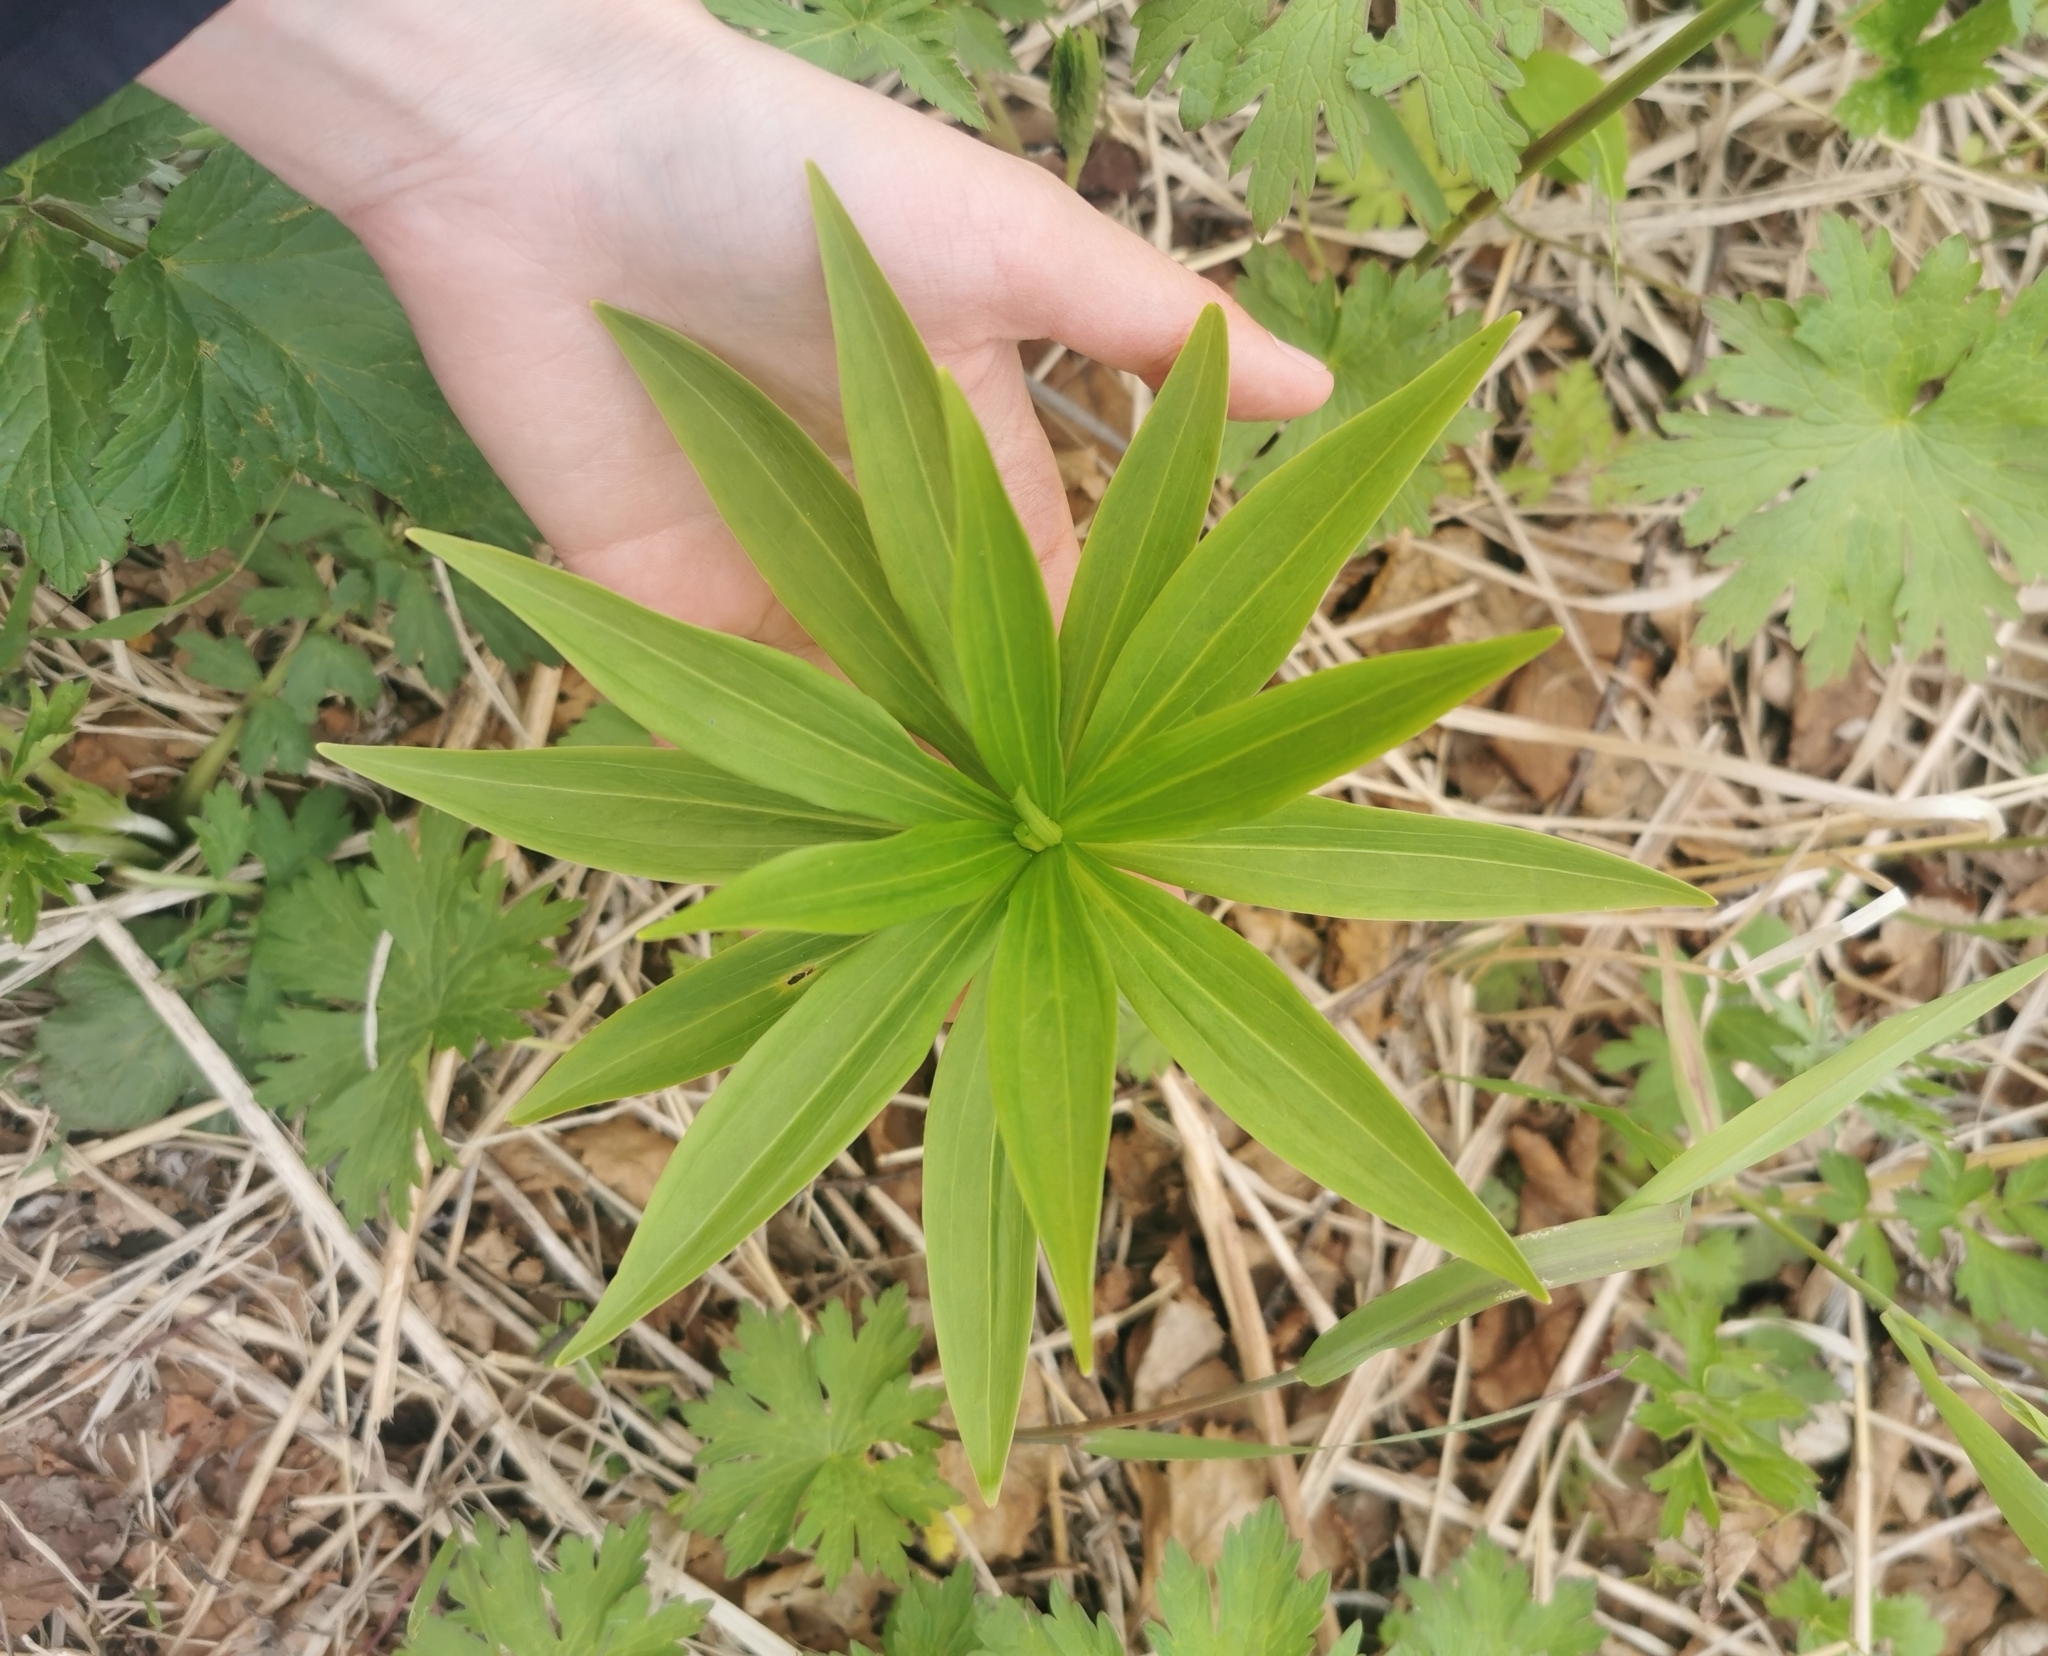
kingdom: Plantae
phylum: Tracheophyta
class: Liliopsida
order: Liliales
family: Liliaceae
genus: Lilium
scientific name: Lilium debile
